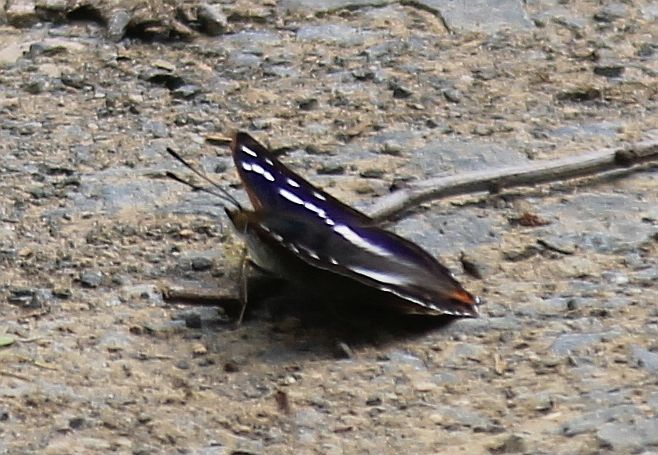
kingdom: Animalia
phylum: Arthropoda
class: Insecta
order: Lepidoptera
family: Nymphalidae
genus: Apatura
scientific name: Apatura iris
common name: Purple emperor
